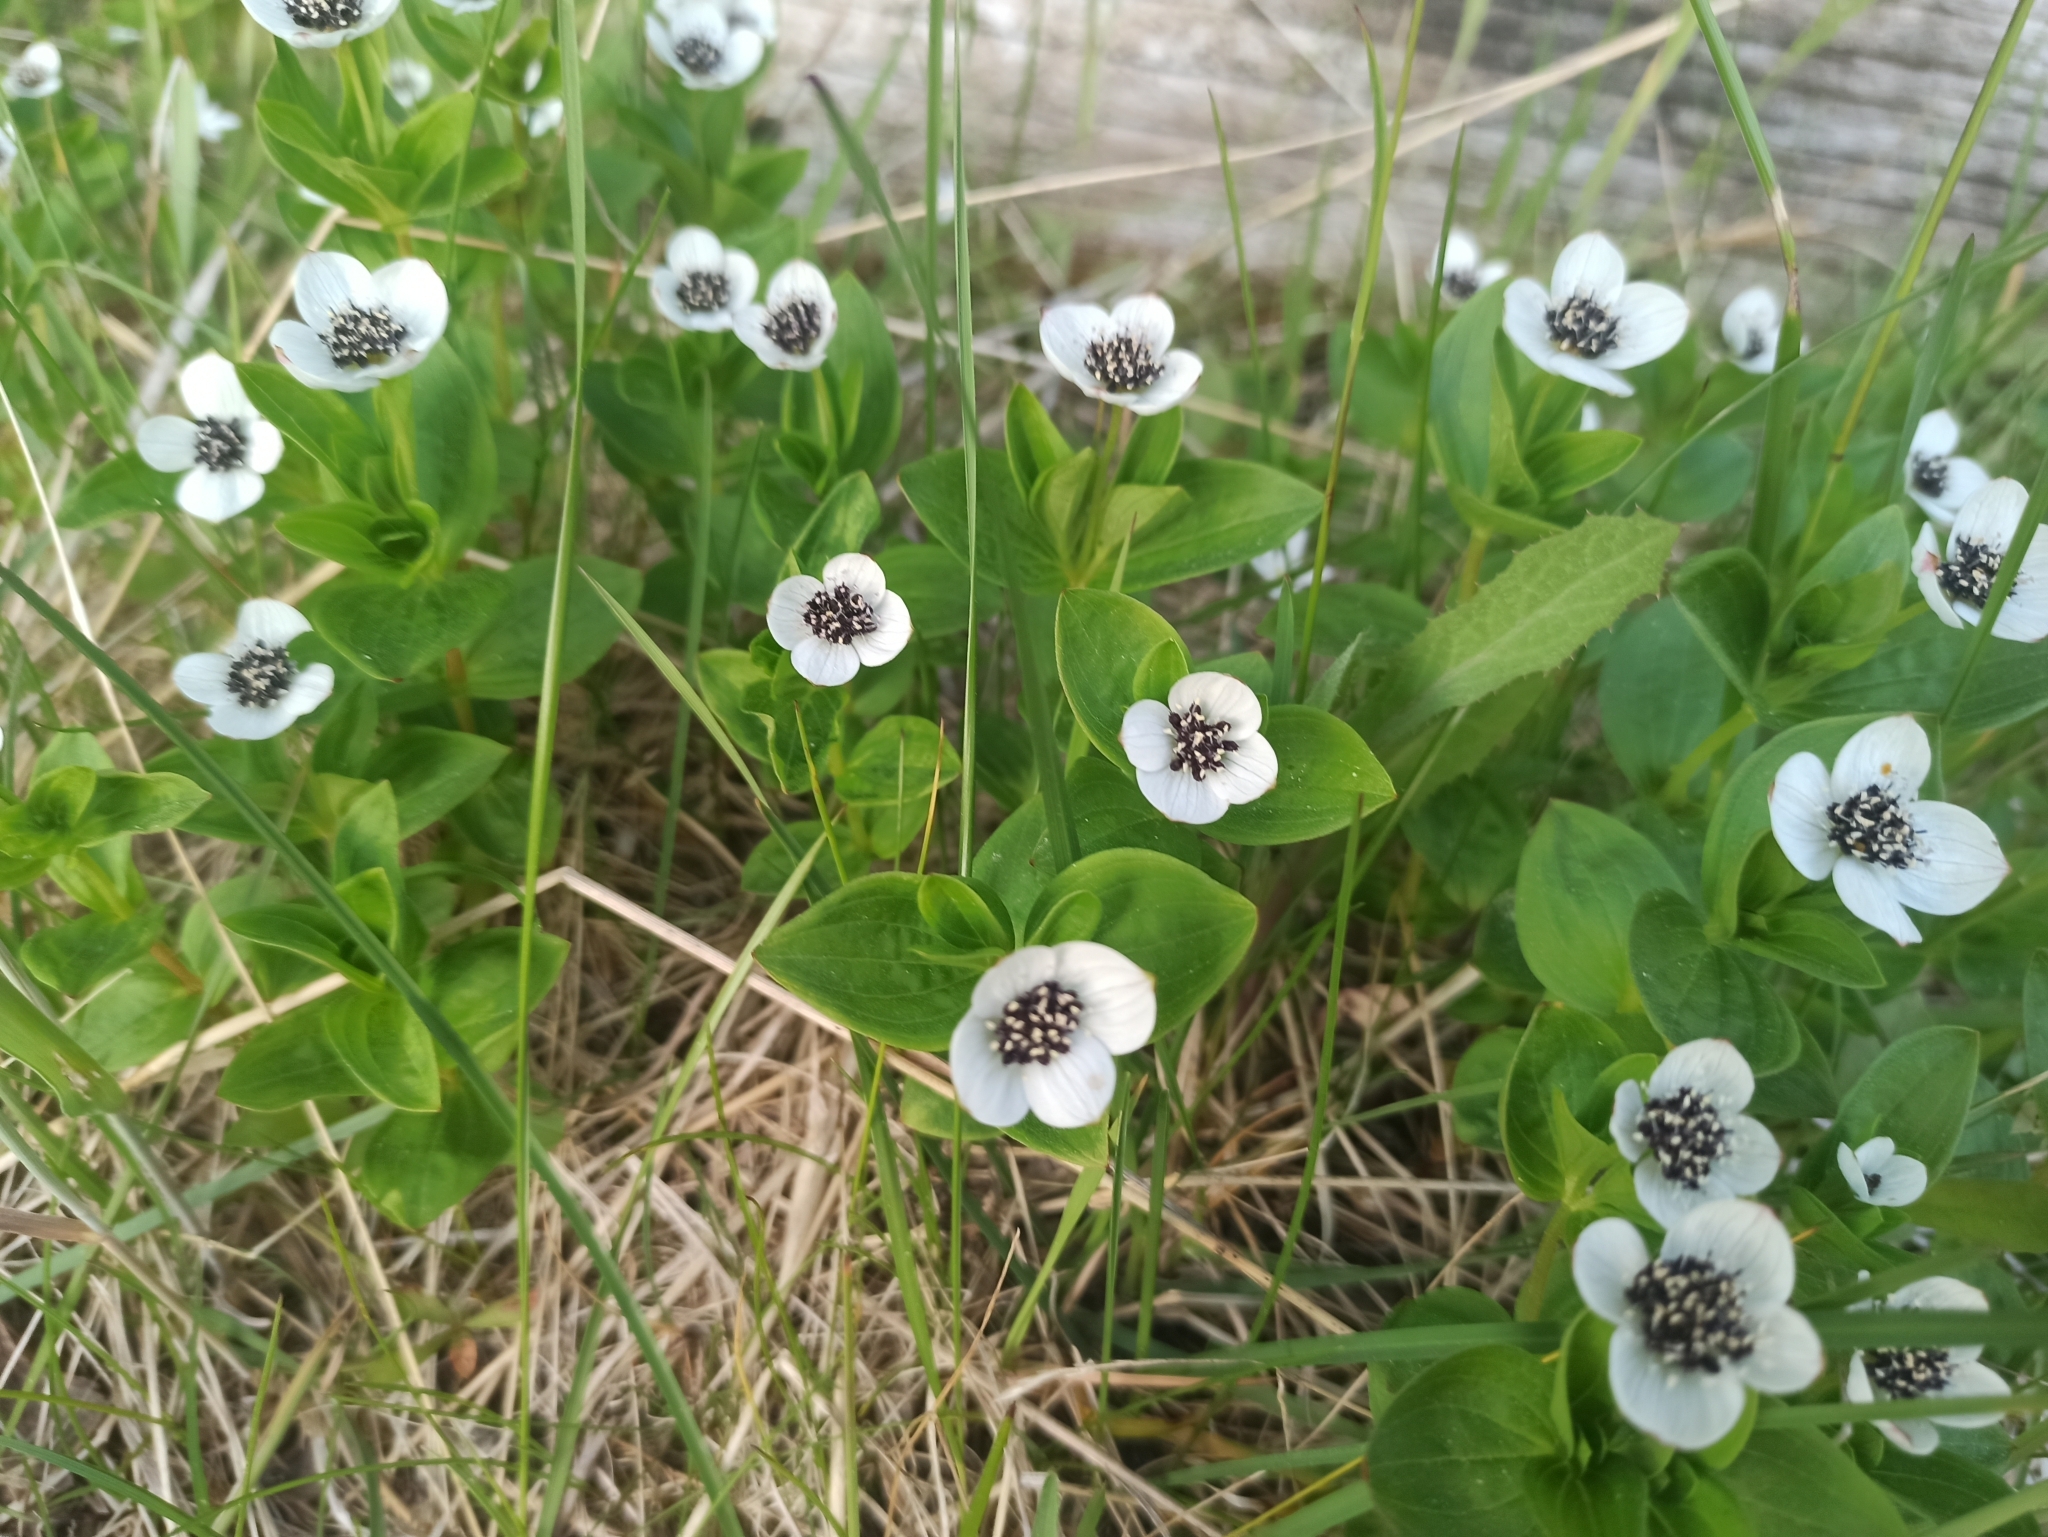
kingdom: Plantae
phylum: Tracheophyta
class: Magnoliopsida
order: Cornales
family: Cornaceae
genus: Cornus
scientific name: Cornus suecica
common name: Dwarf cornel
